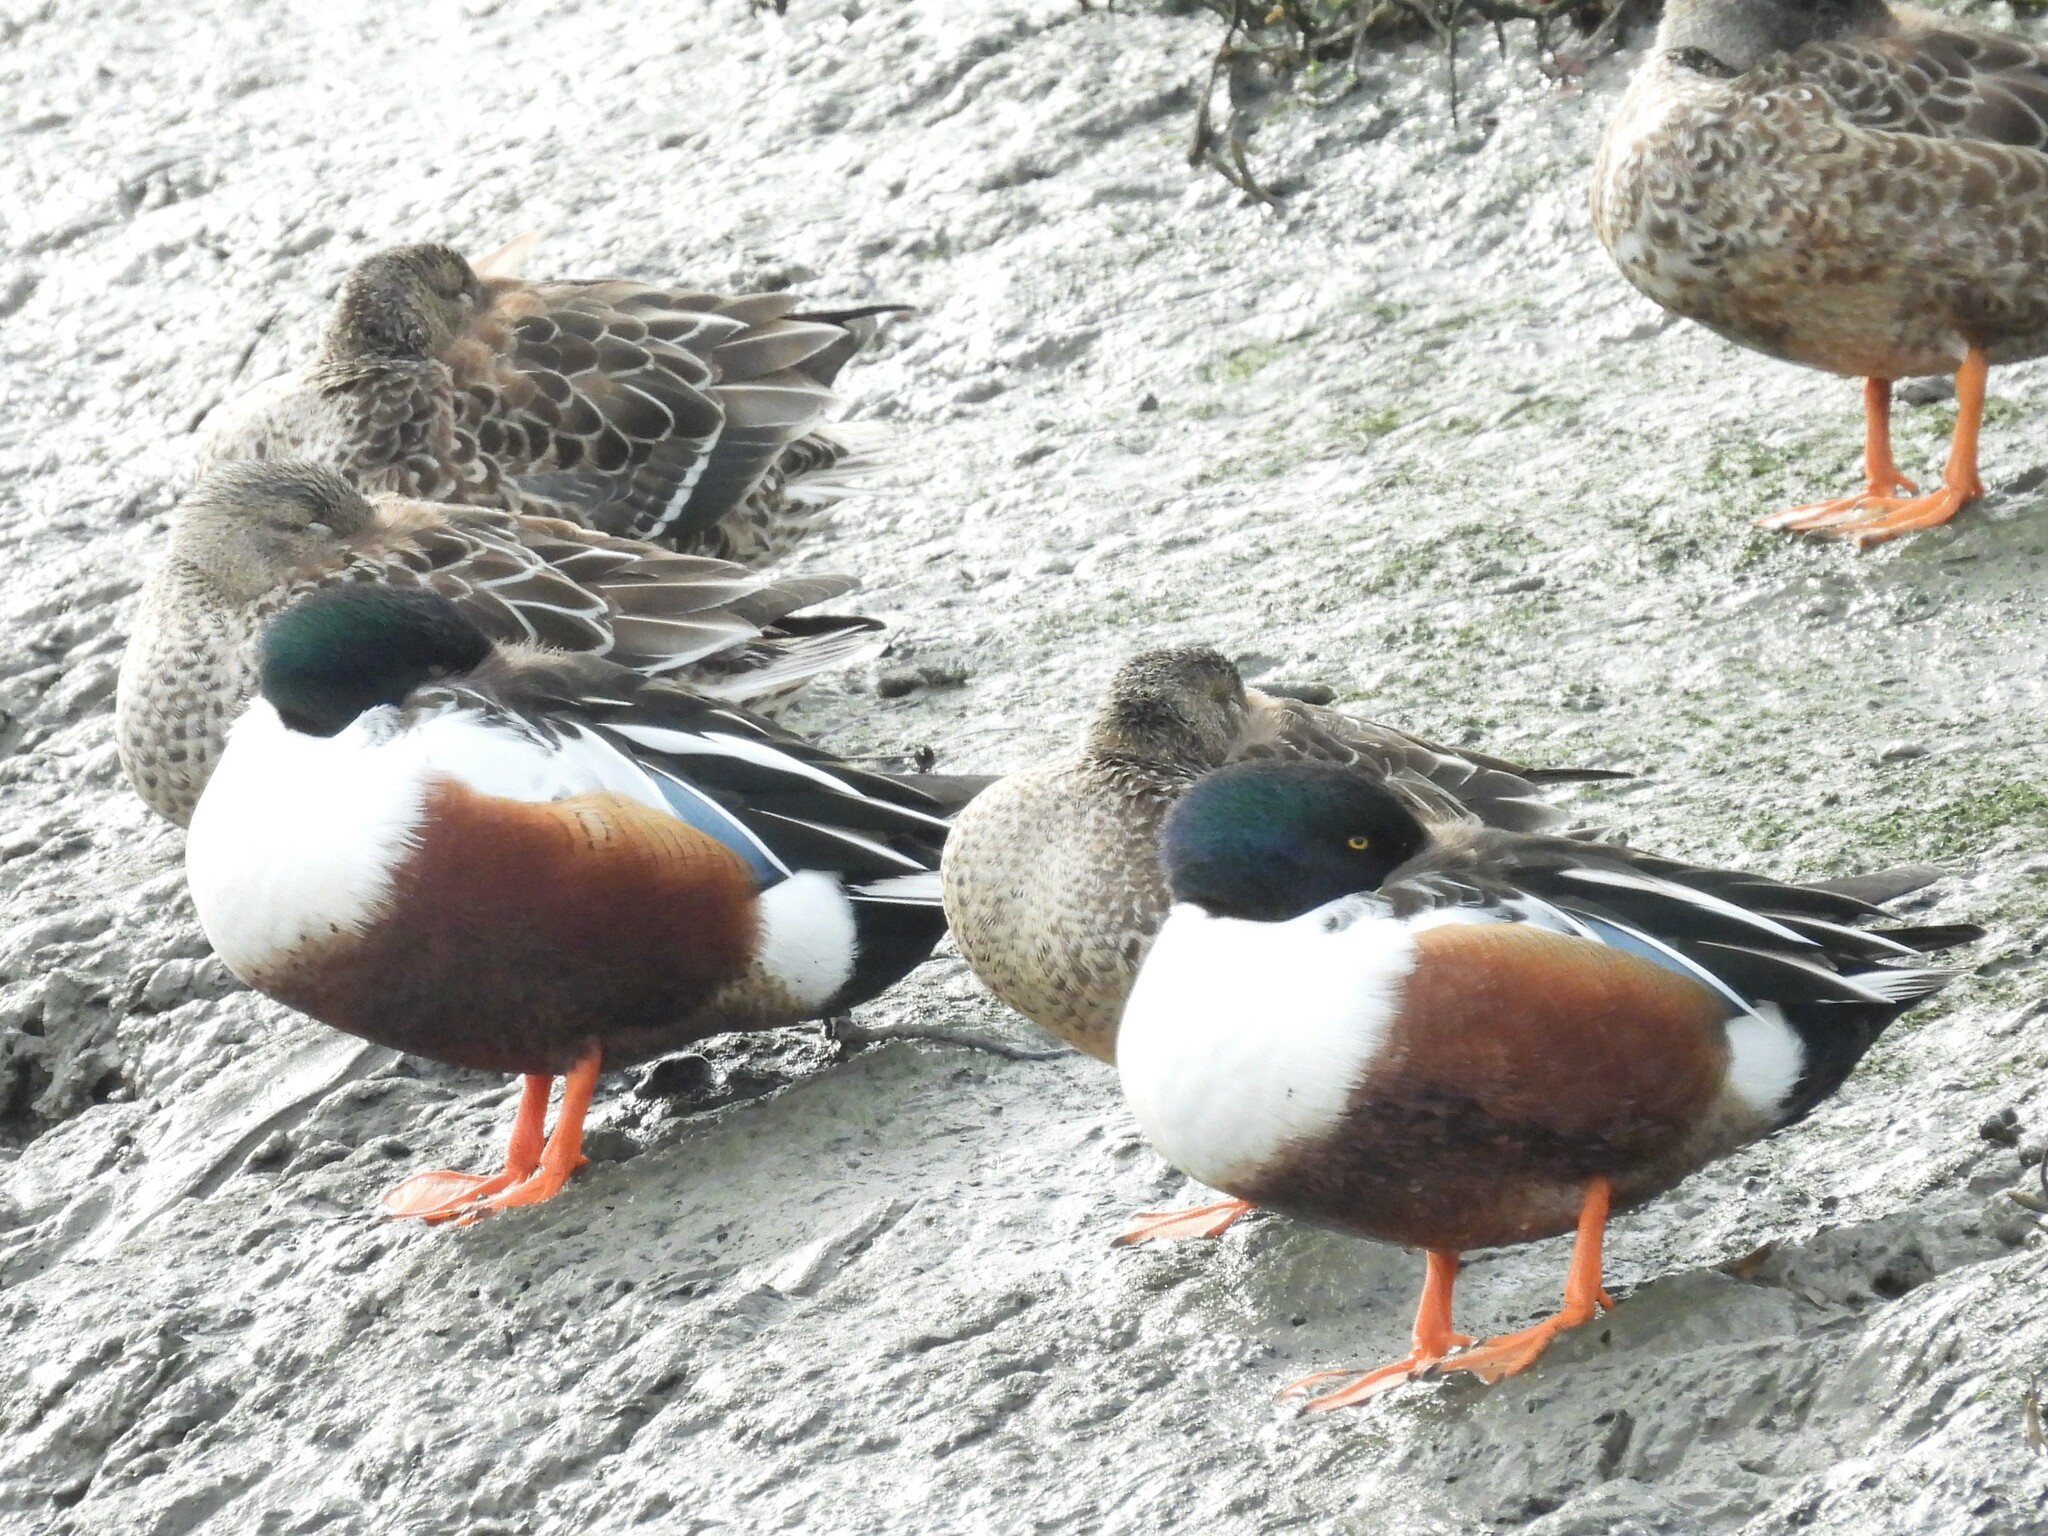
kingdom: Animalia
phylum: Chordata
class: Aves
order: Anseriformes
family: Anatidae
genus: Spatula
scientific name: Spatula clypeata
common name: Northern shoveler
